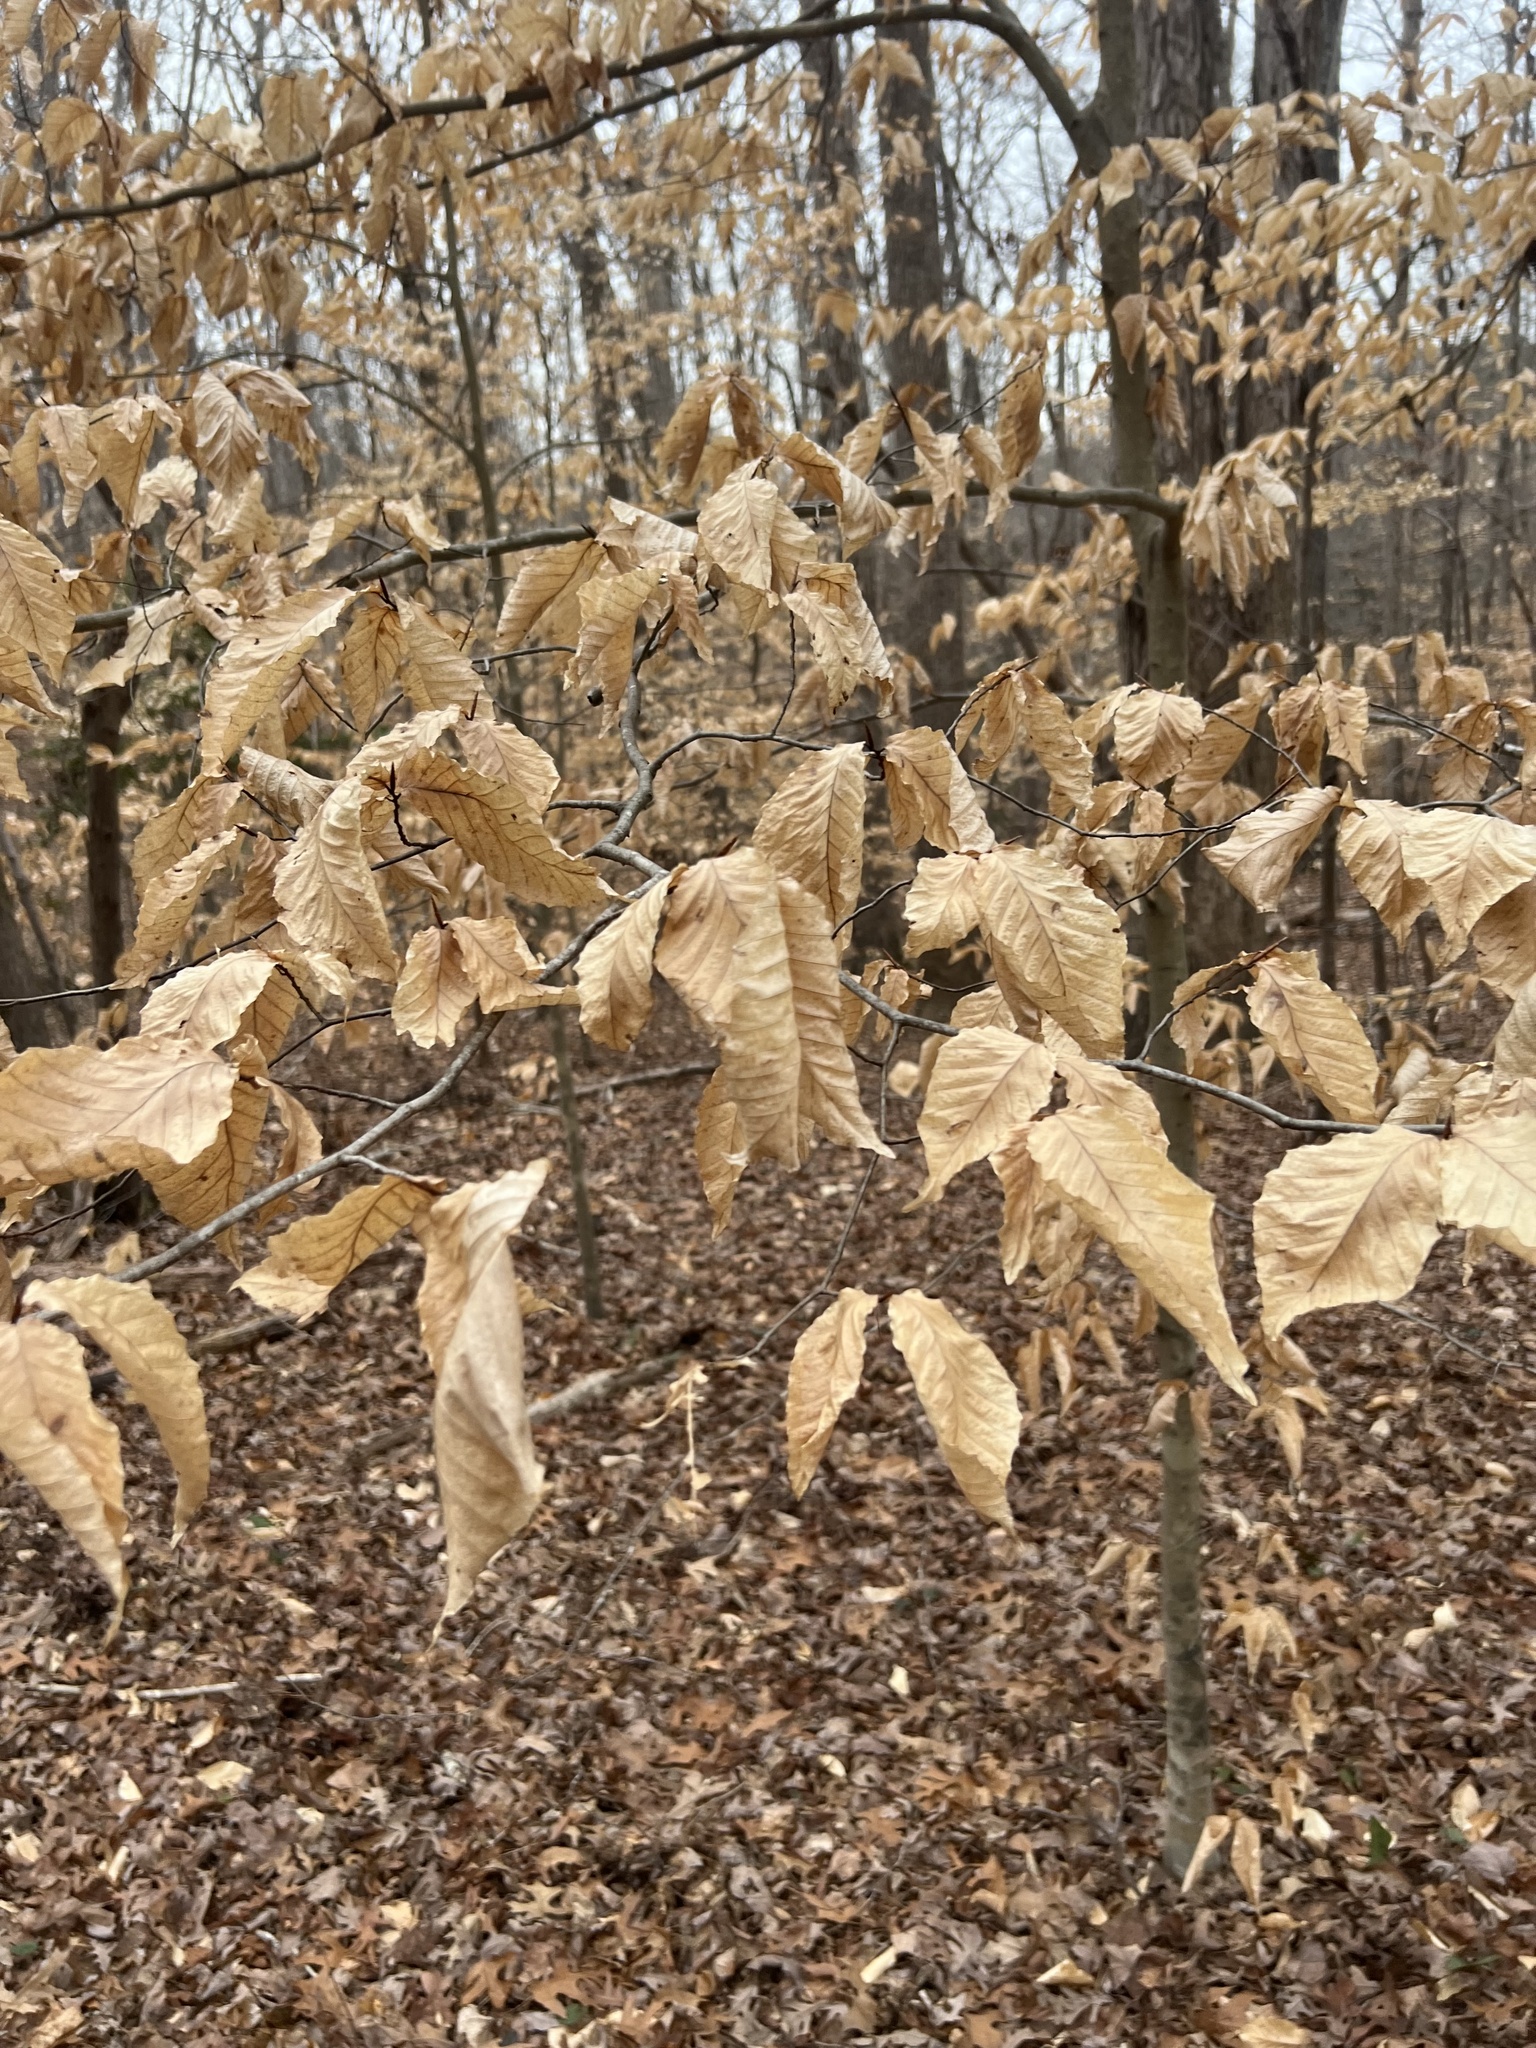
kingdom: Plantae
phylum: Tracheophyta
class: Magnoliopsida
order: Fagales
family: Fagaceae
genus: Fagus
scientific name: Fagus grandifolia
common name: American beech
